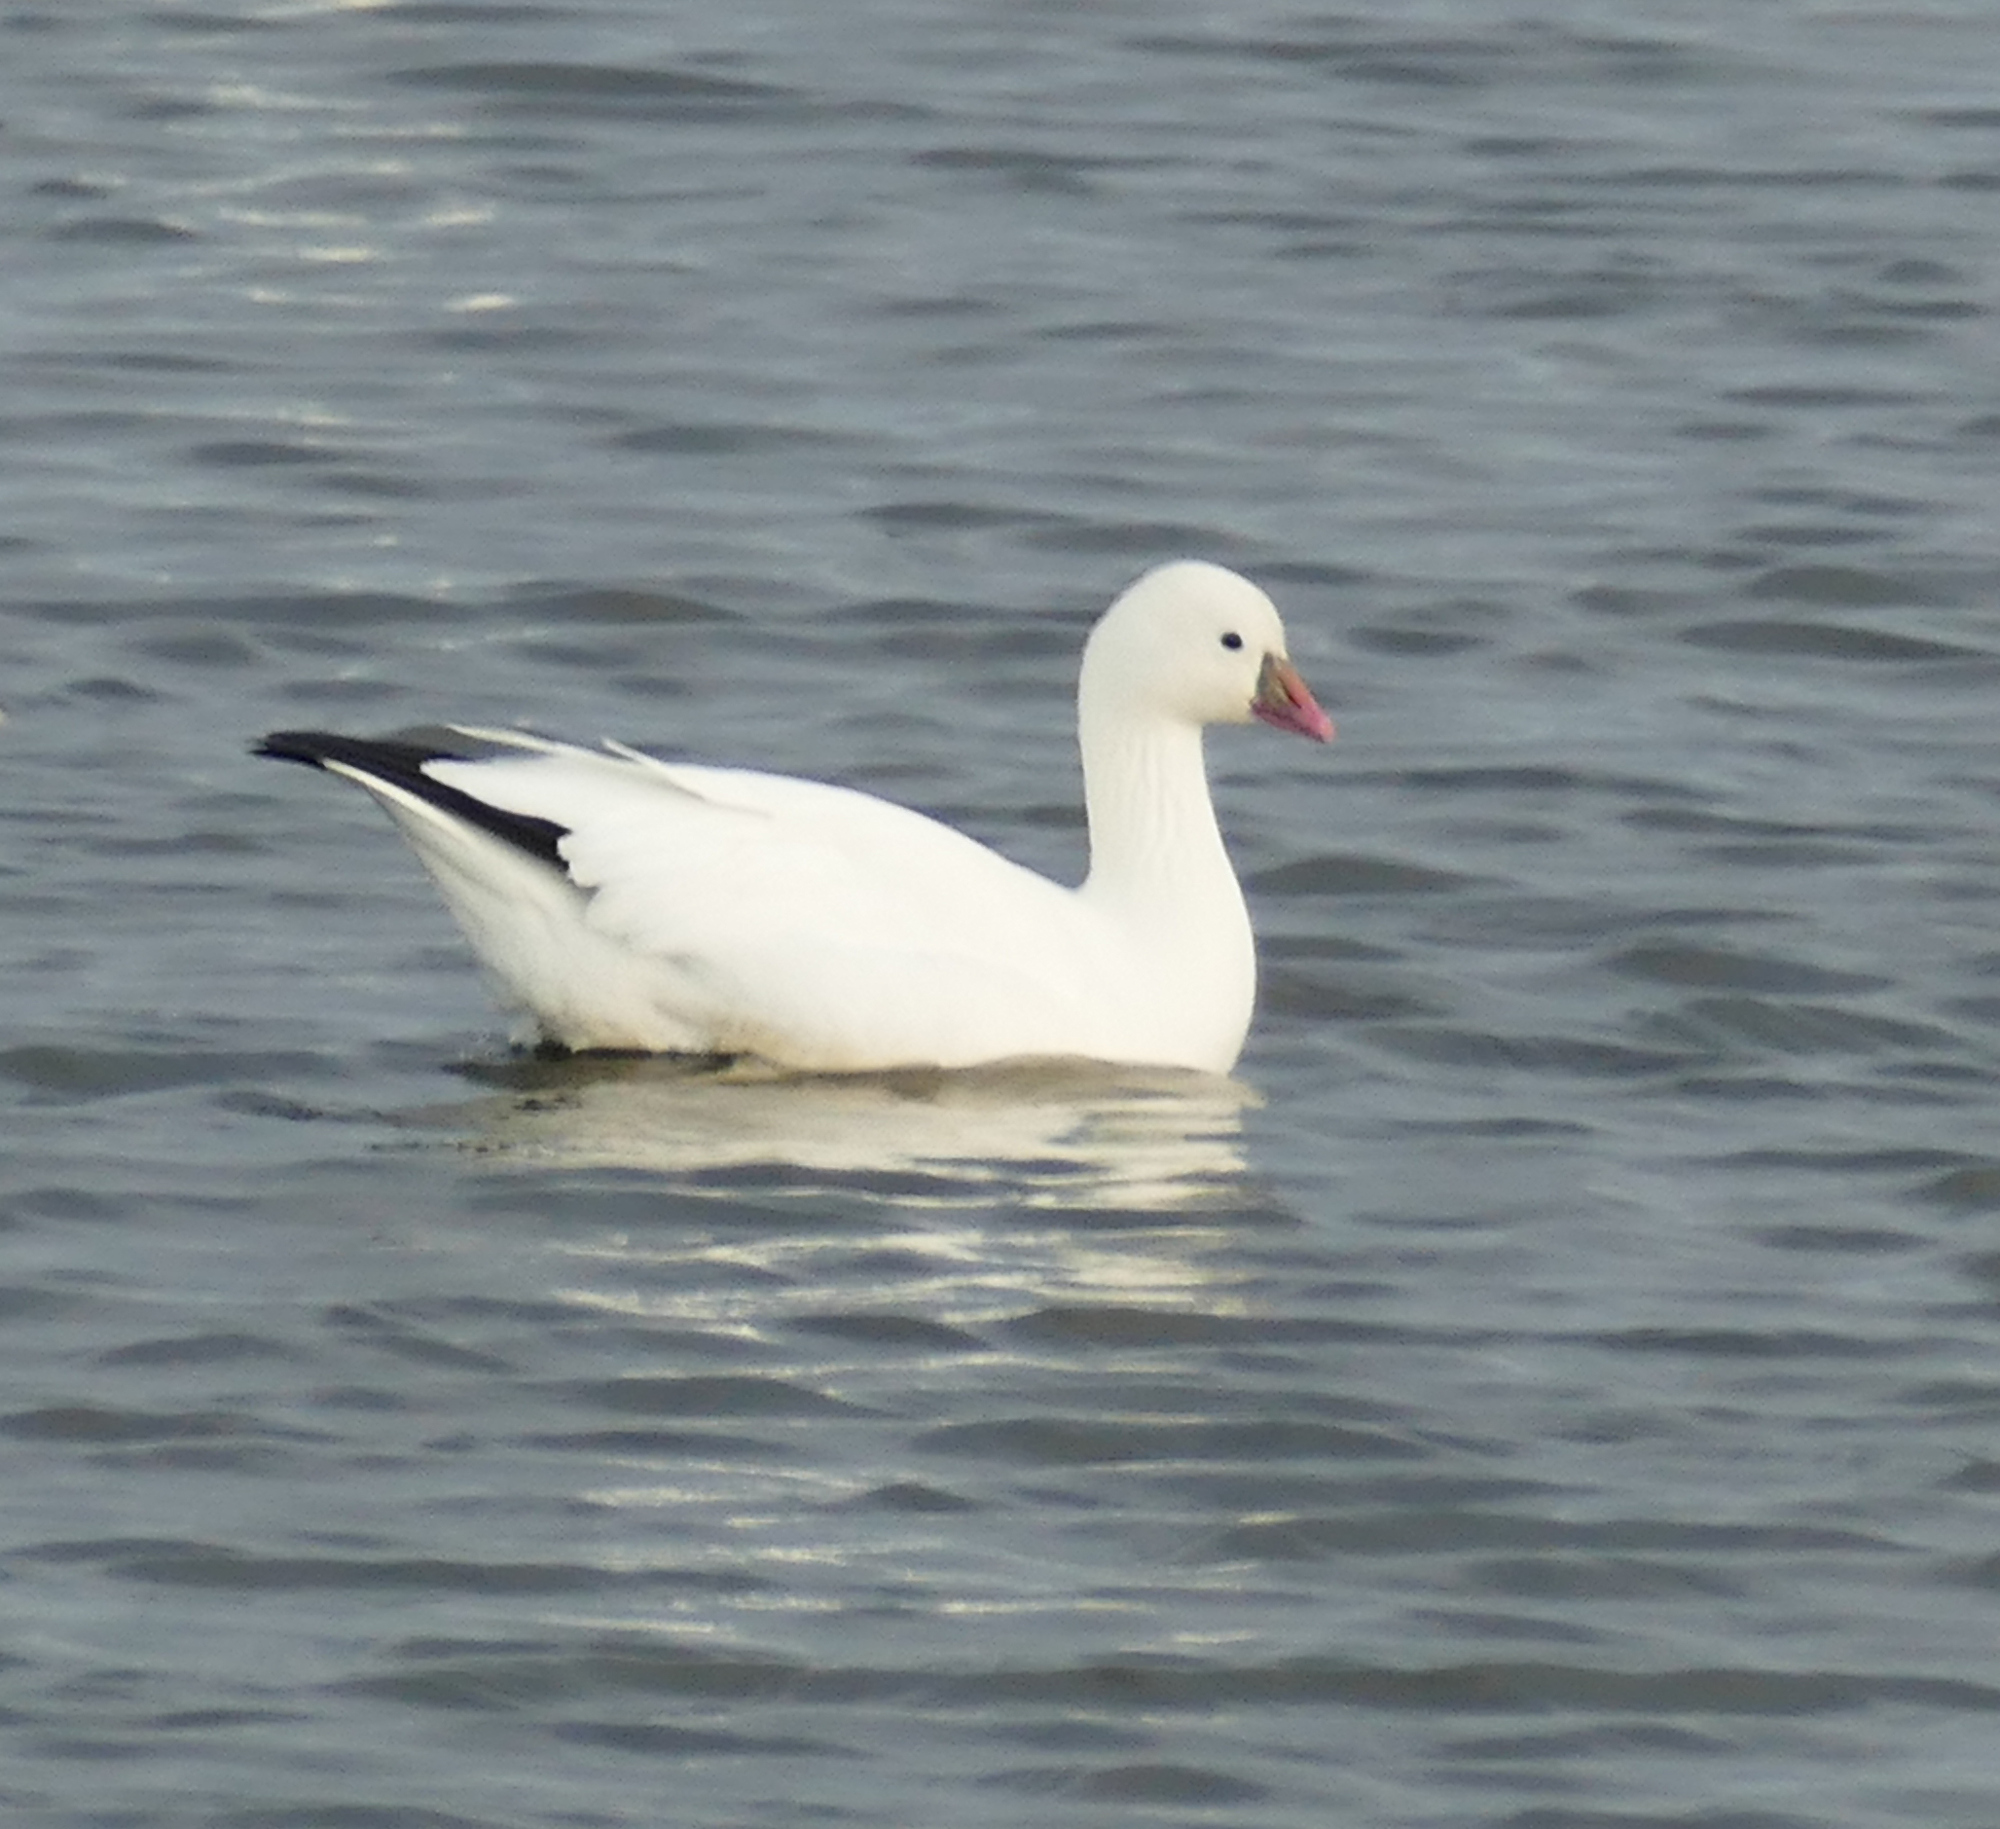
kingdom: Animalia
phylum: Chordata
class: Aves
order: Anseriformes
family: Anatidae
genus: Anser
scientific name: Anser rossii
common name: Ross's goose
